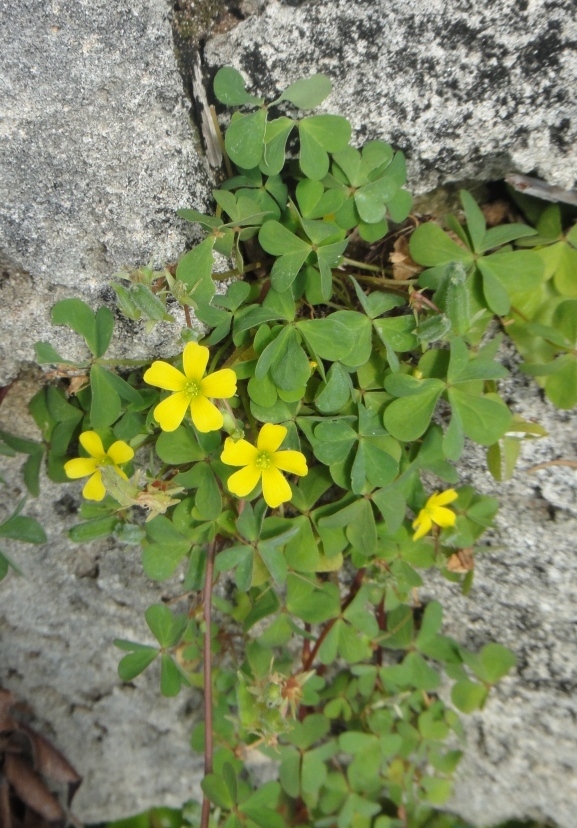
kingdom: Plantae
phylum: Tracheophyta
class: Magnoliopsida
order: Oxalidales
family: Oxalidaceae
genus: Oxalis
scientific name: Oxalis corniculata
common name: Procumbent yellow-sorrel
